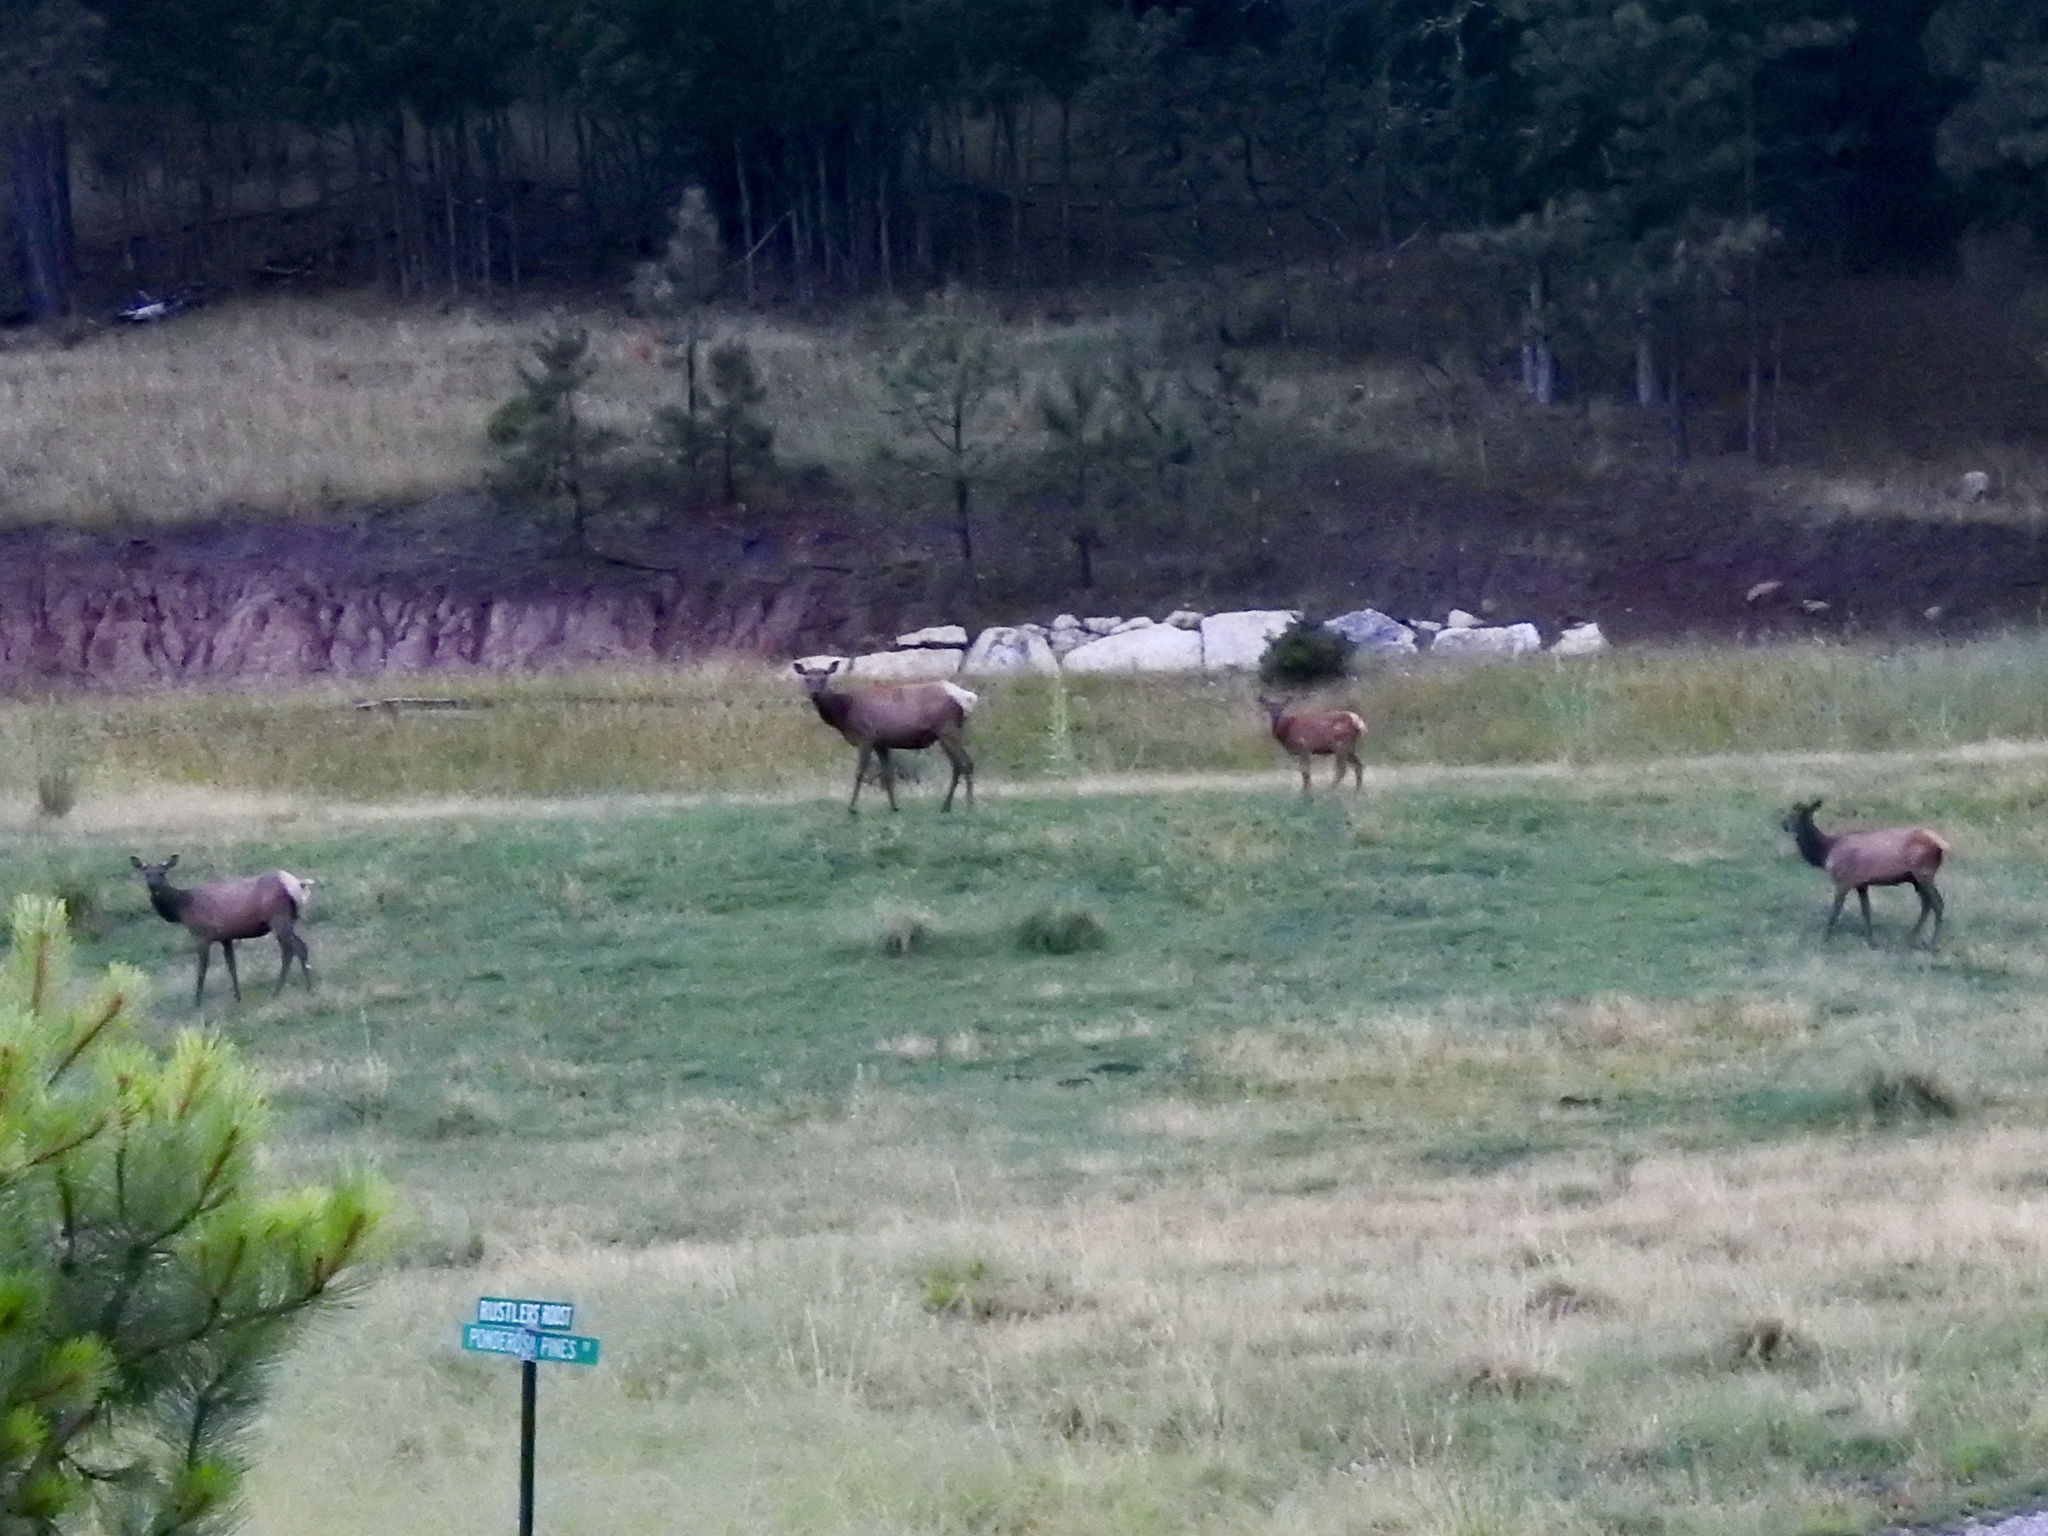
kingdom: Animalia
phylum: Chordata
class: Mammalia
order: Artiodactyla
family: Cervidae
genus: Cervus
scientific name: Cervus elaphus
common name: Red deer
